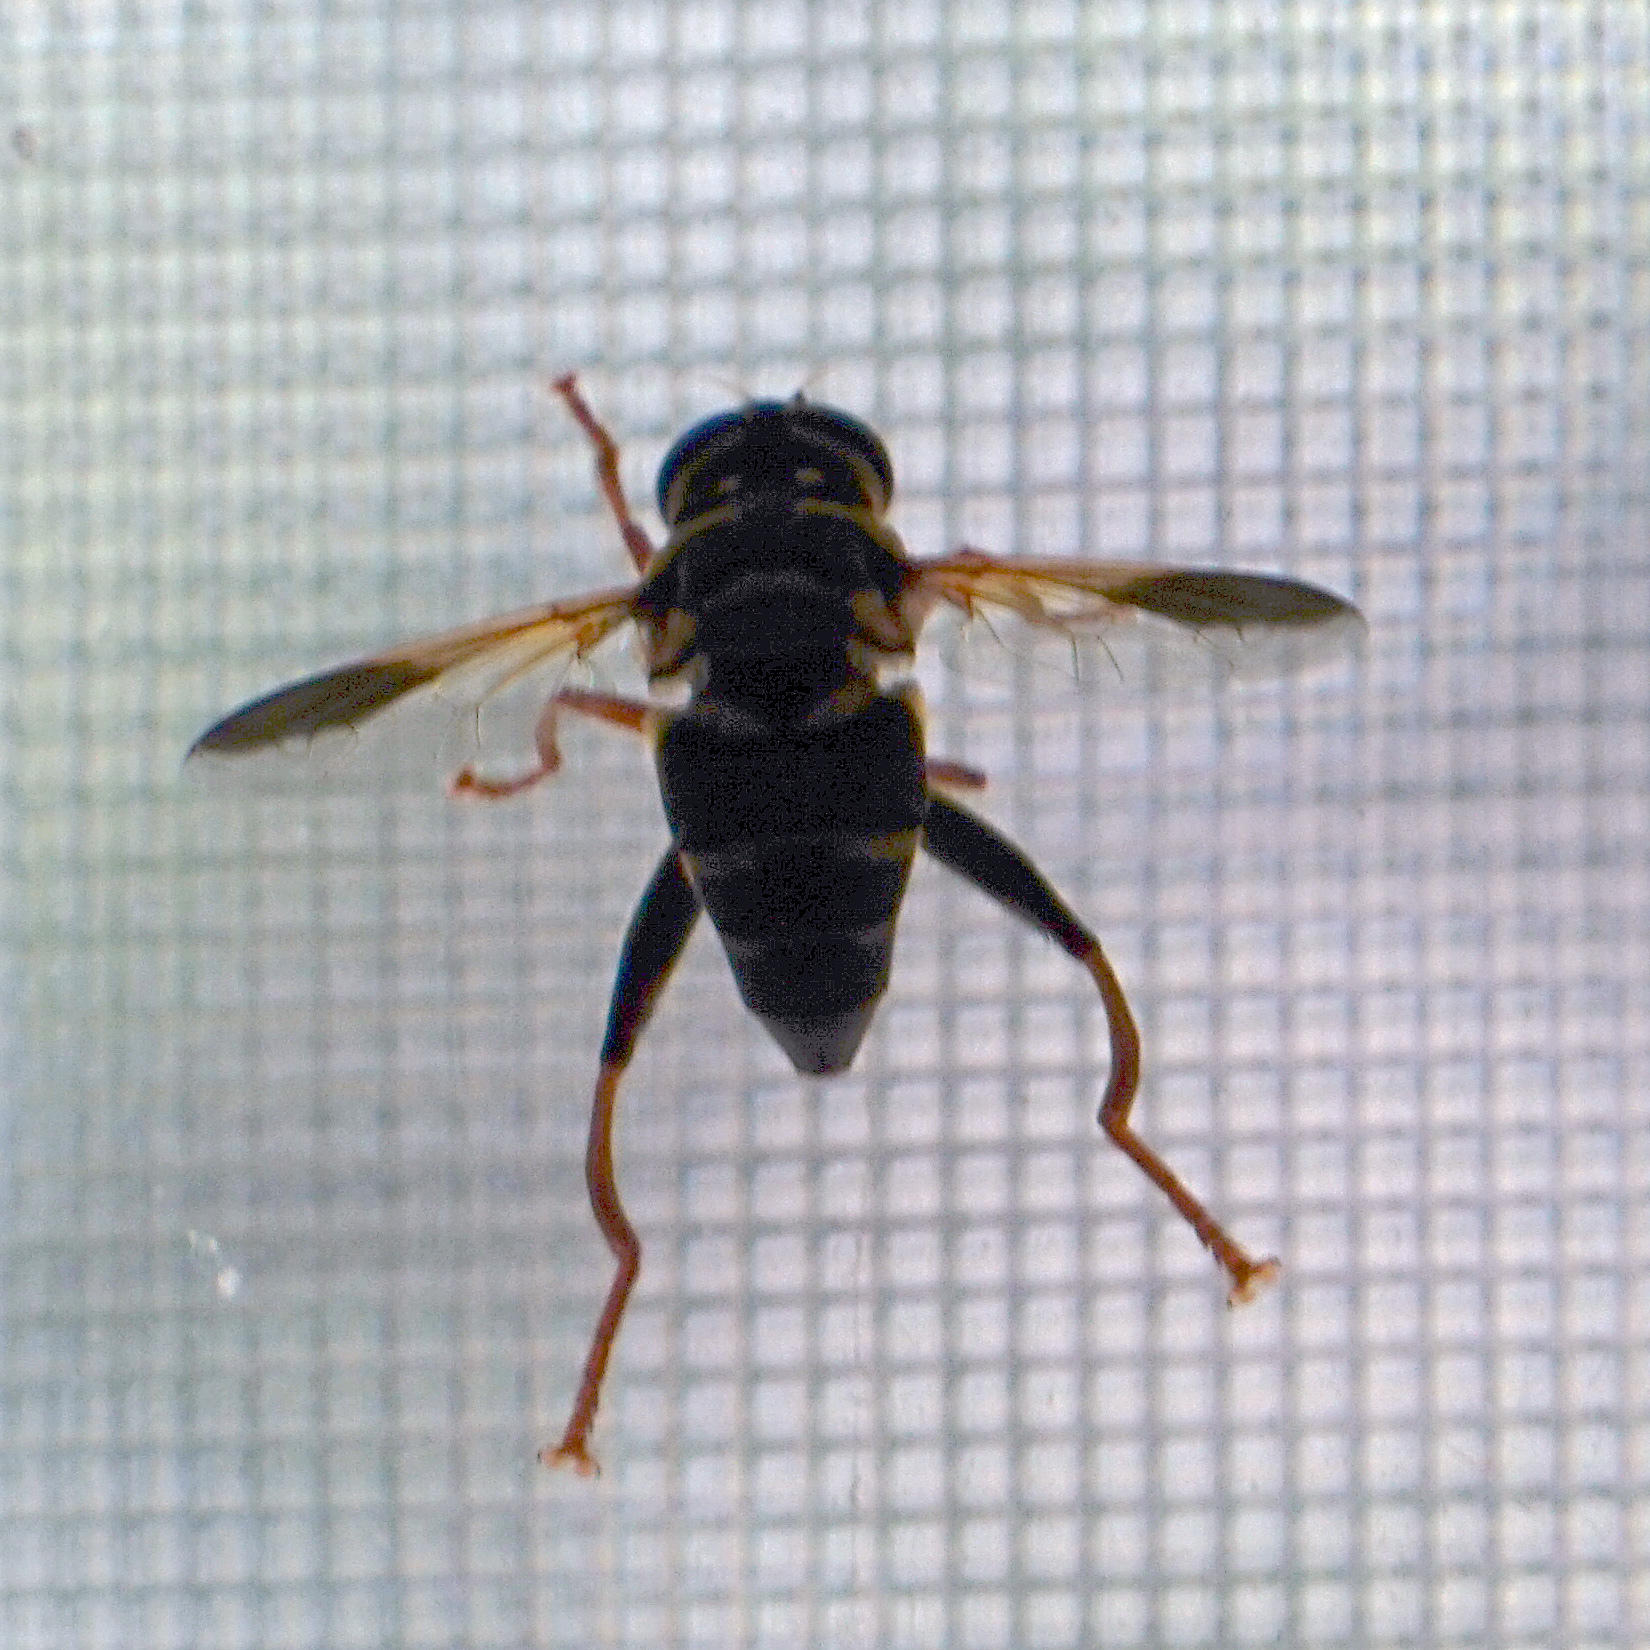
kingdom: Animalia
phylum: Arthropoda
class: Insecta
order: Diptera
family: Syrphidae
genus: Meromacrus
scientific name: Meromacrus acutus
